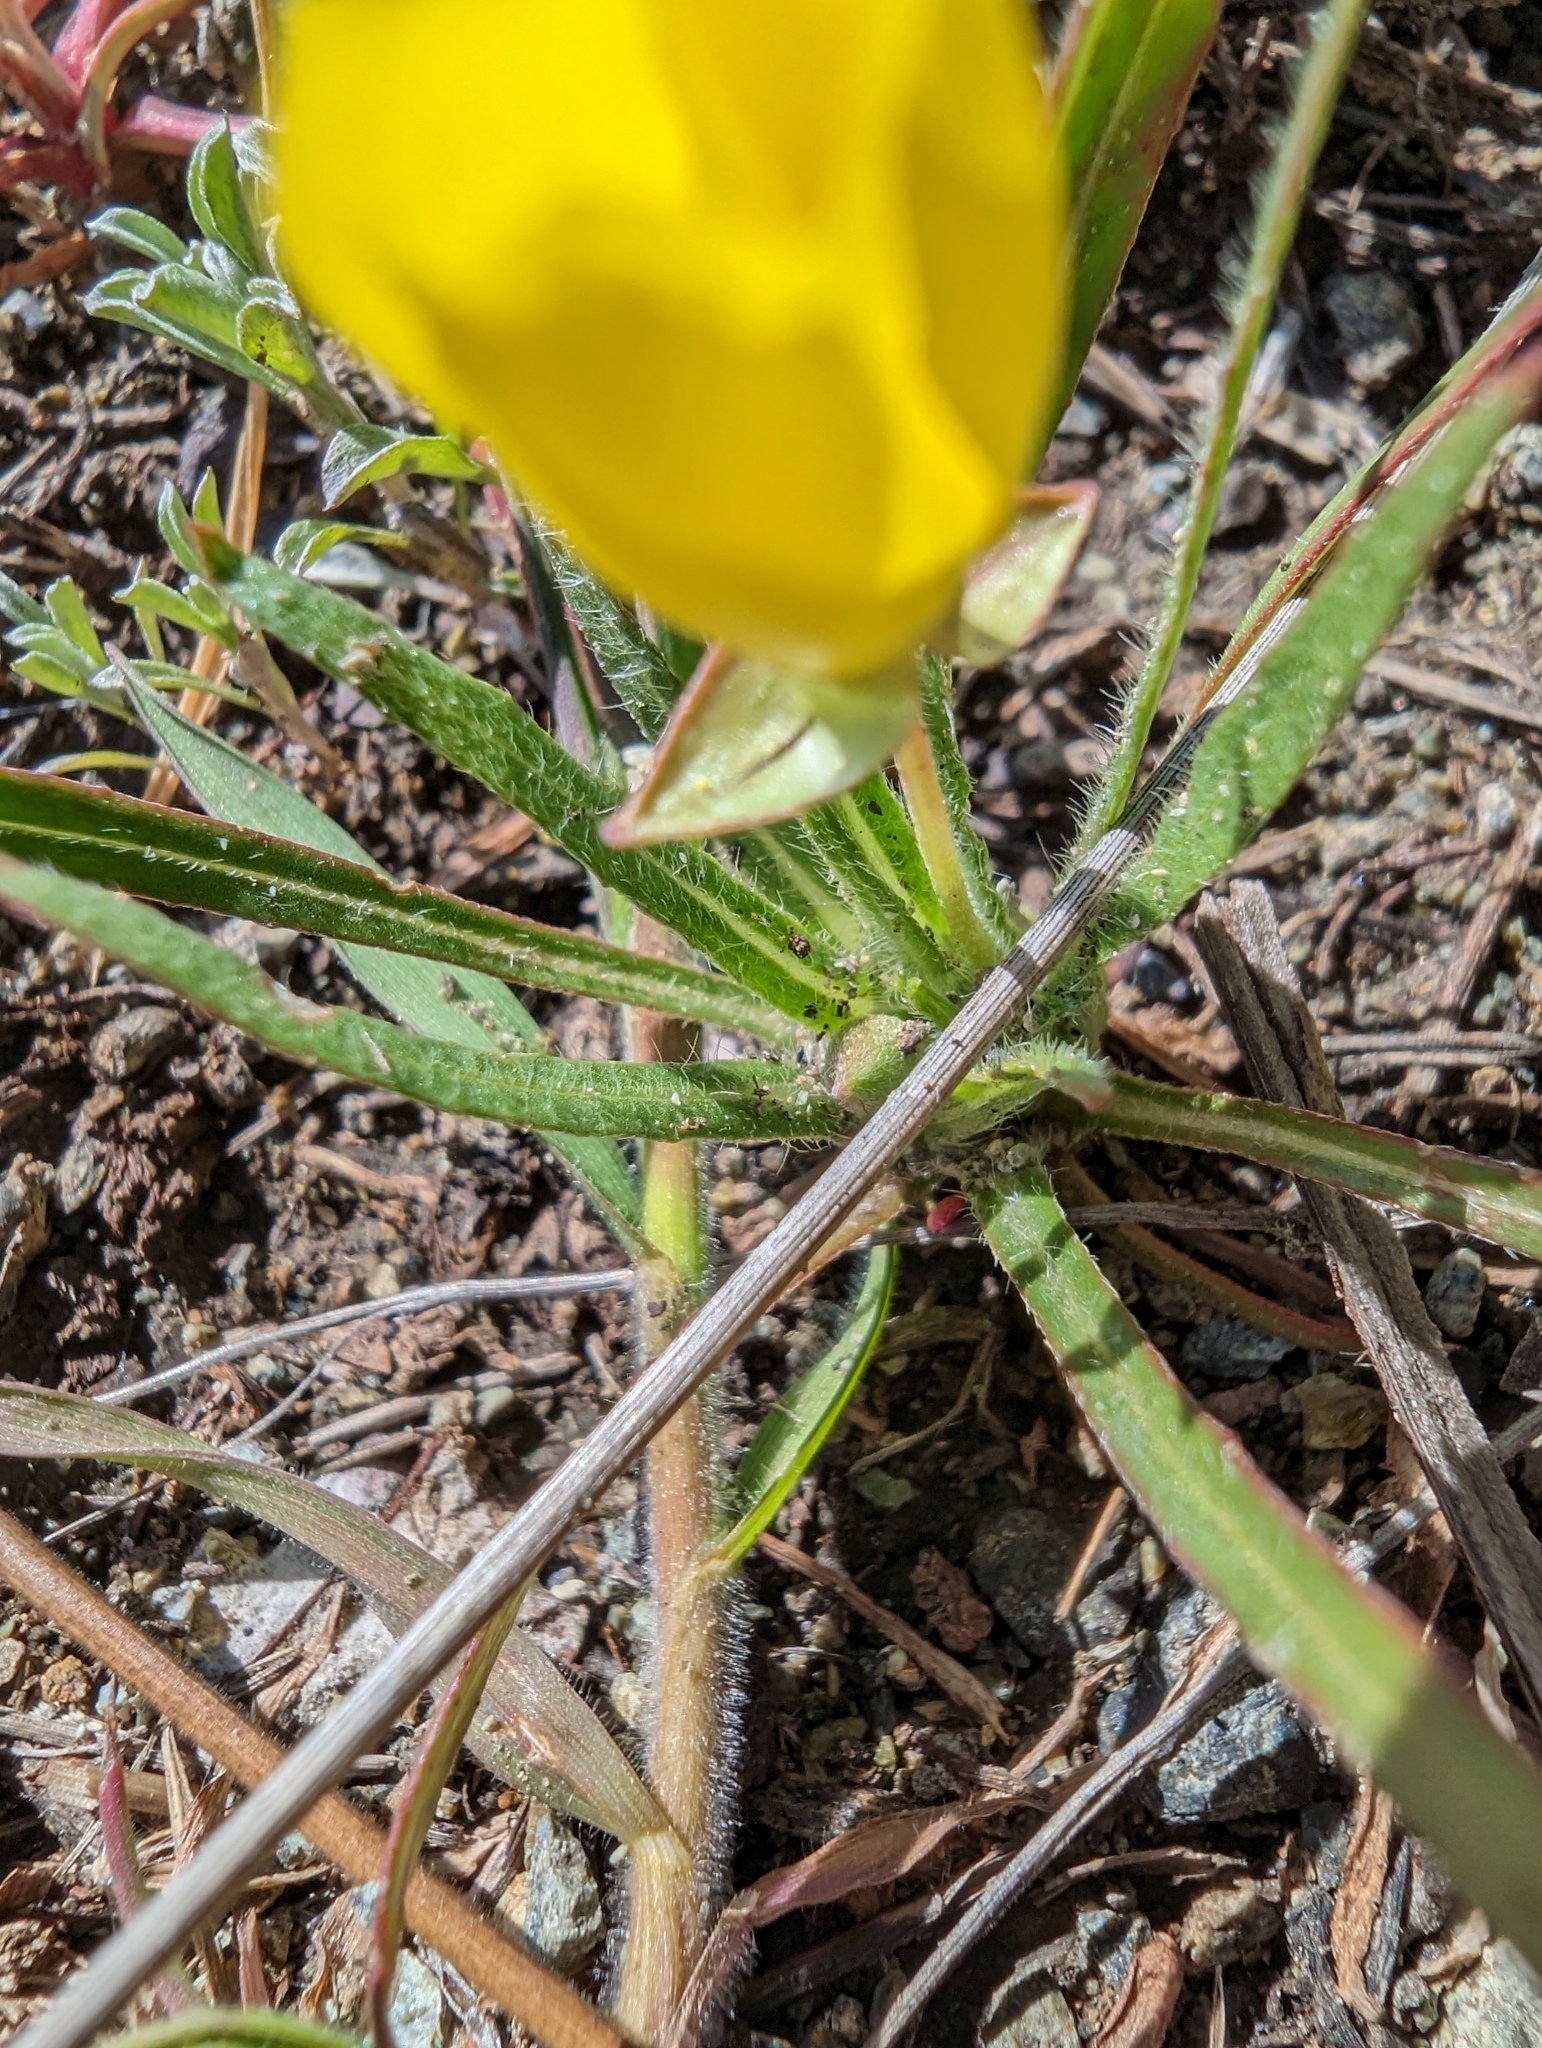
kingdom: Plantae
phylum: Tracheophyta
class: Magnoliopsida
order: Myrtales
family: Onagraceae
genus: Tetrapteron
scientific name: Tetrapteron graciliflorum
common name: Hill suncup
